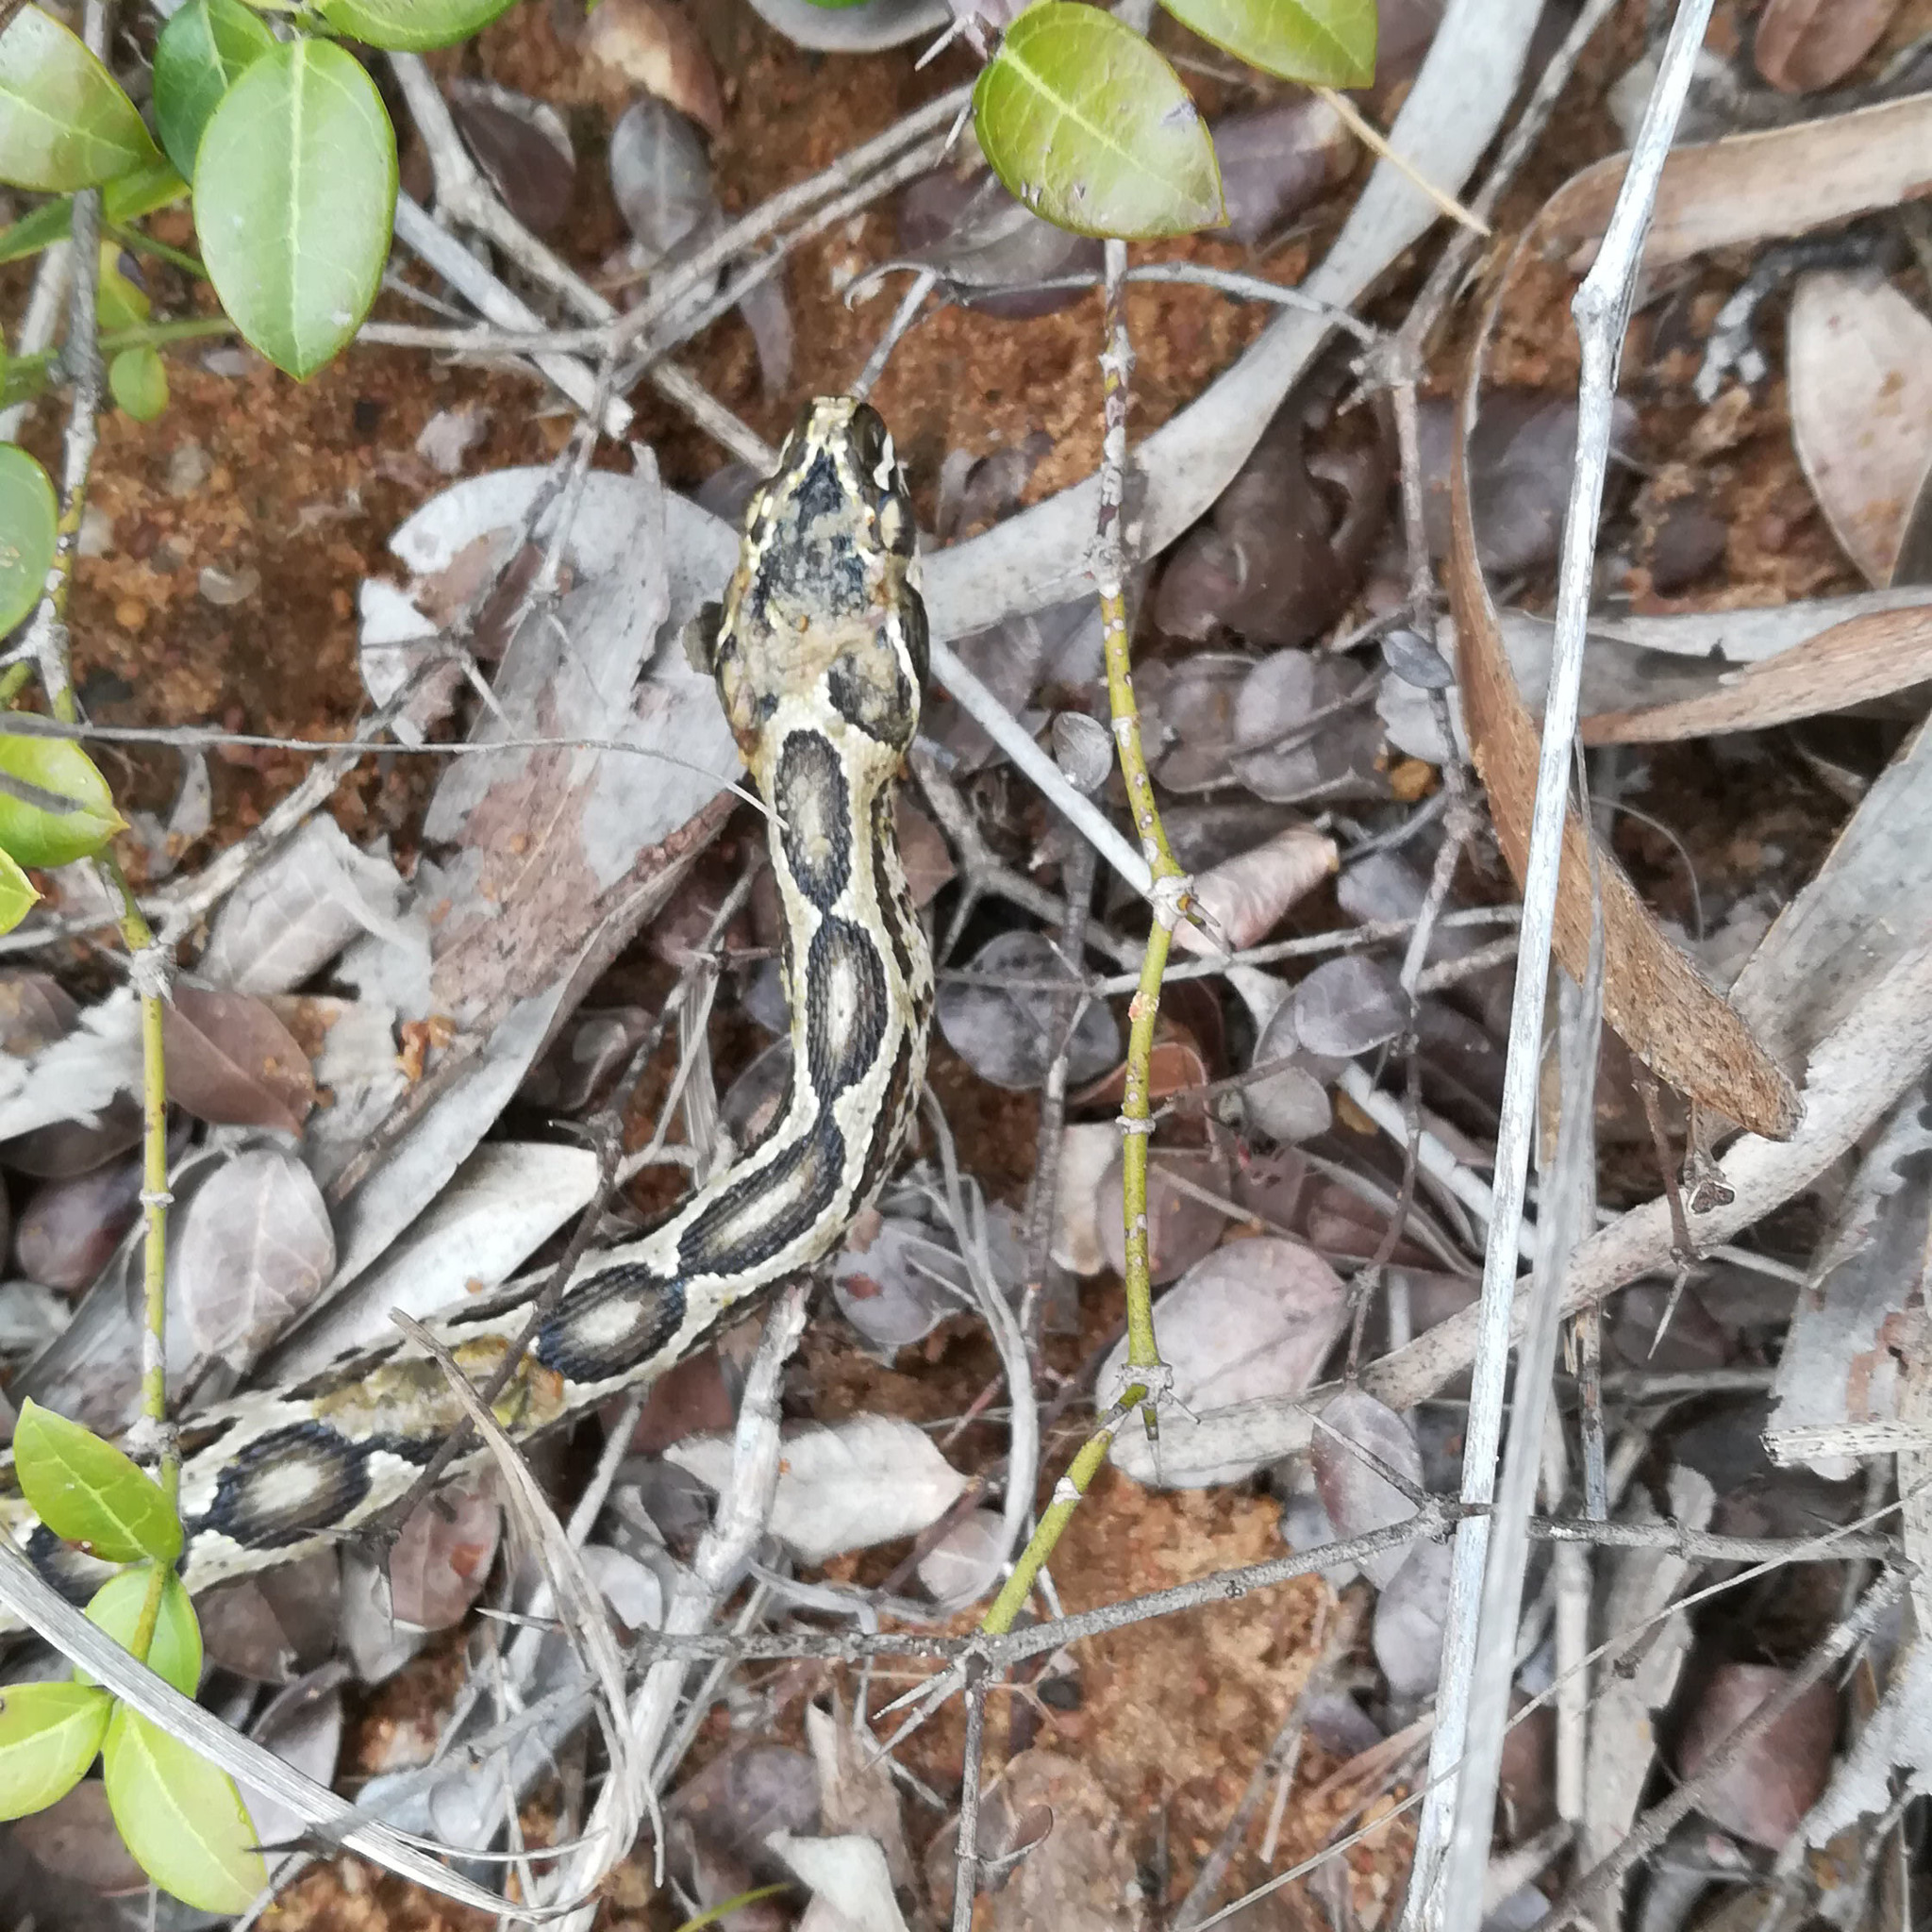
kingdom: Animalia
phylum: Chordata
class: Squamata
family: Viperidae
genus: Daboia
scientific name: Daboia russelii
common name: Western russel’s viper
